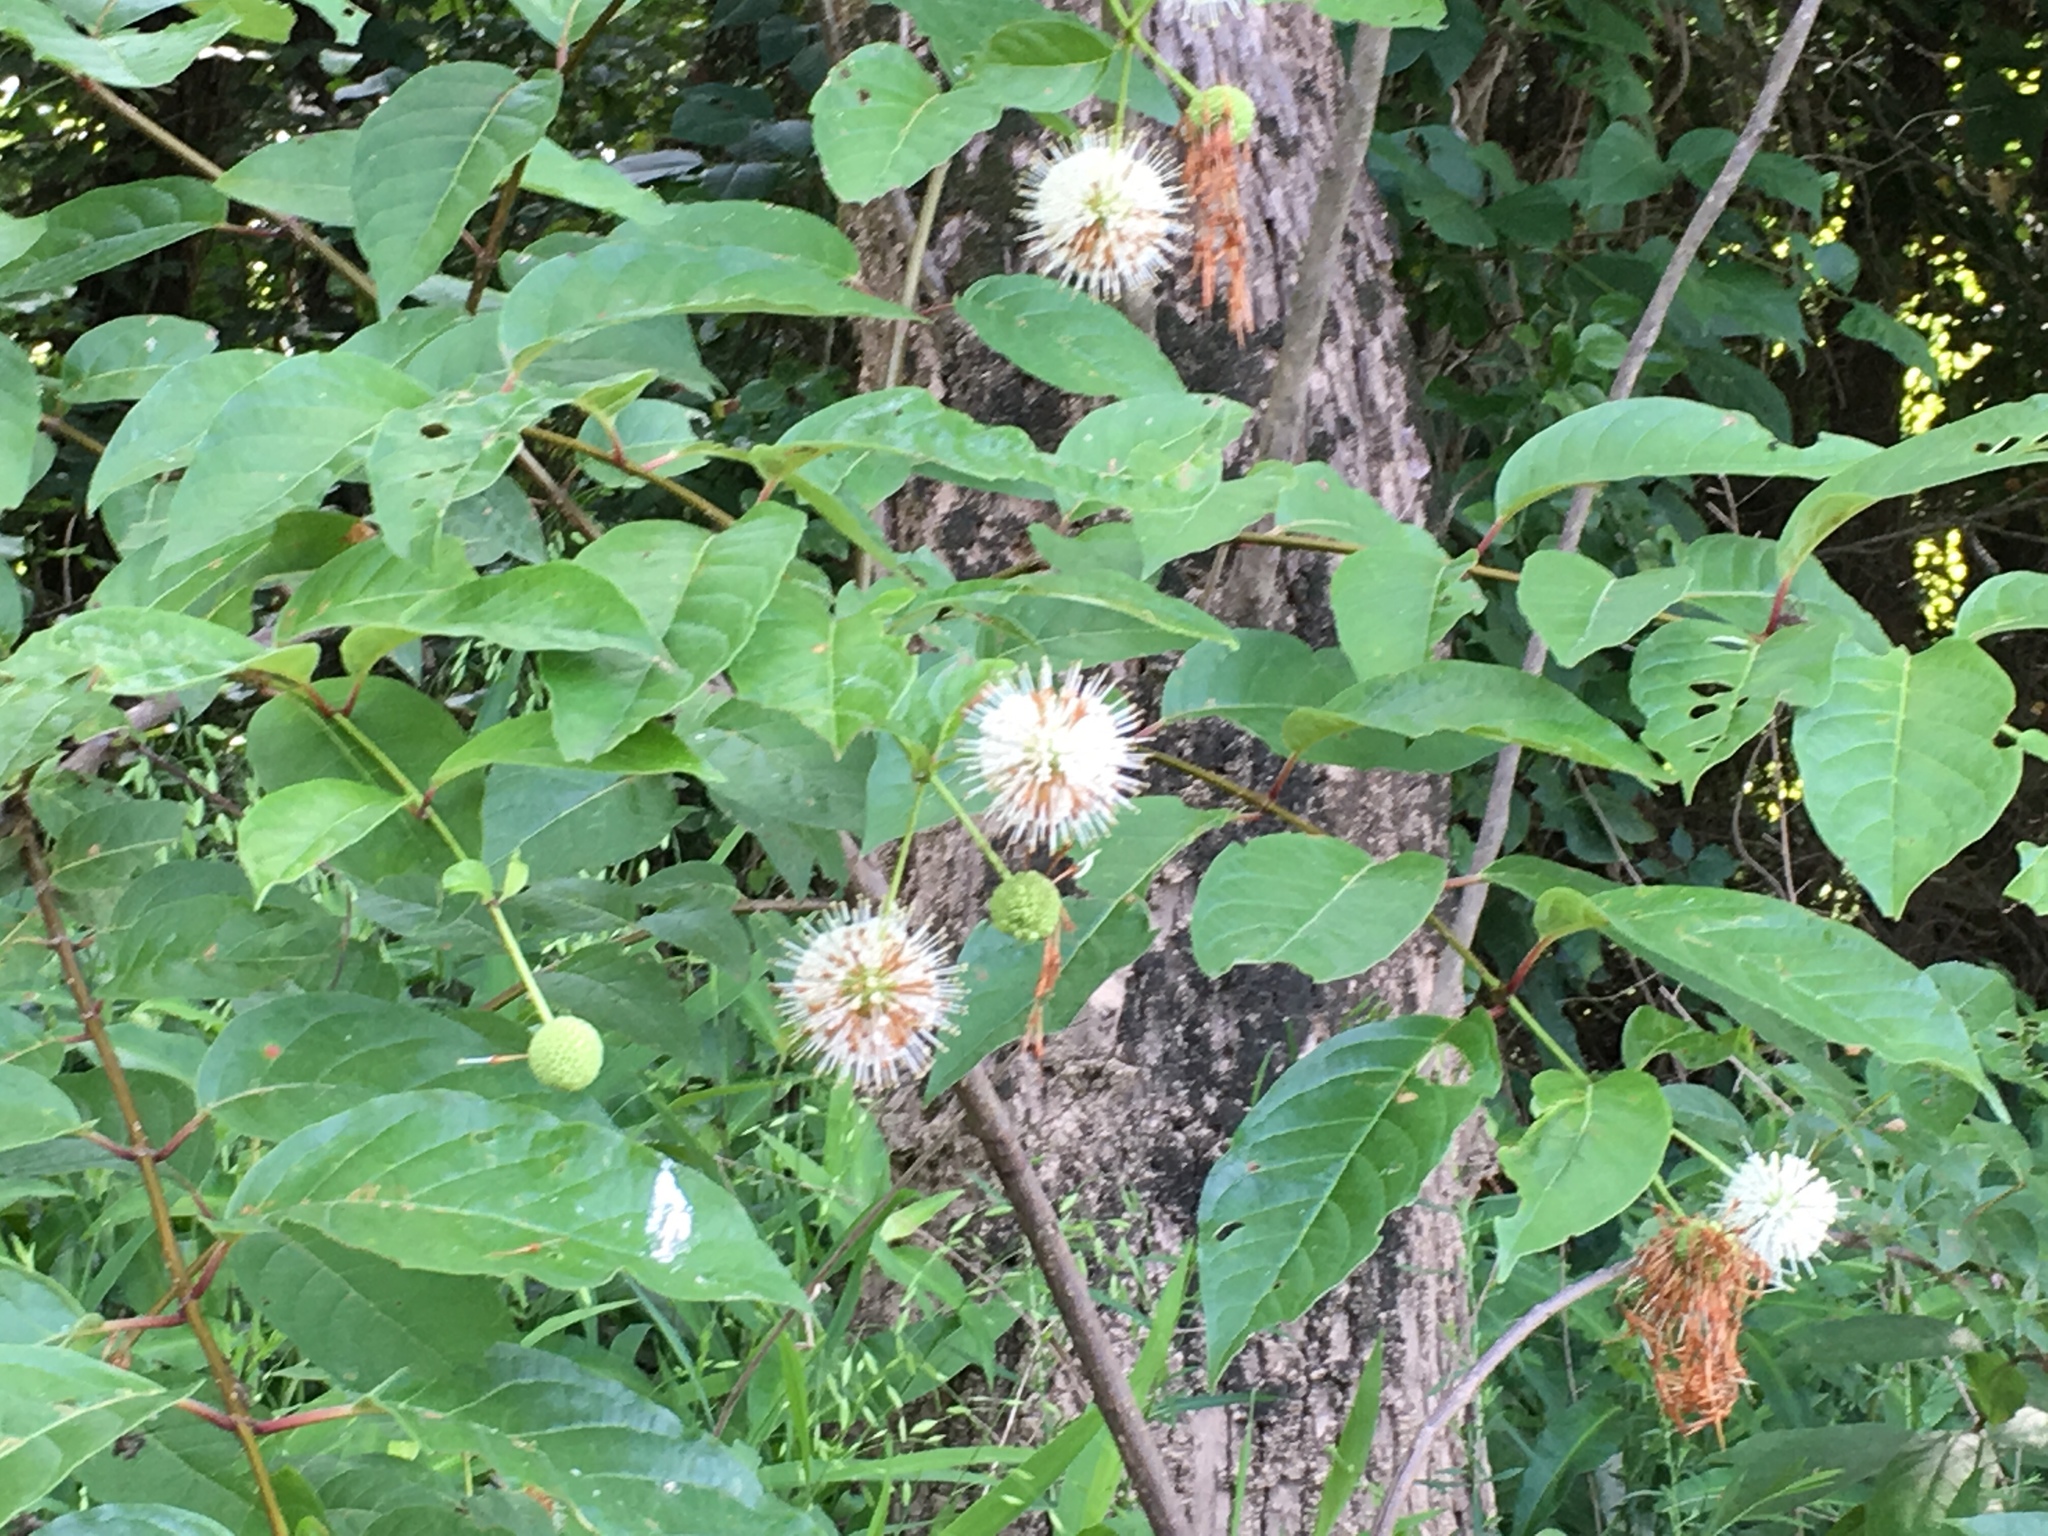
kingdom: Plantae
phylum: Tracheophyta
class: Magnoliopsida
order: Gentianales
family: Rubiaceae
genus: Cephalanthus
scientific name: Cephalanthus occidentalis
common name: Button-willow
